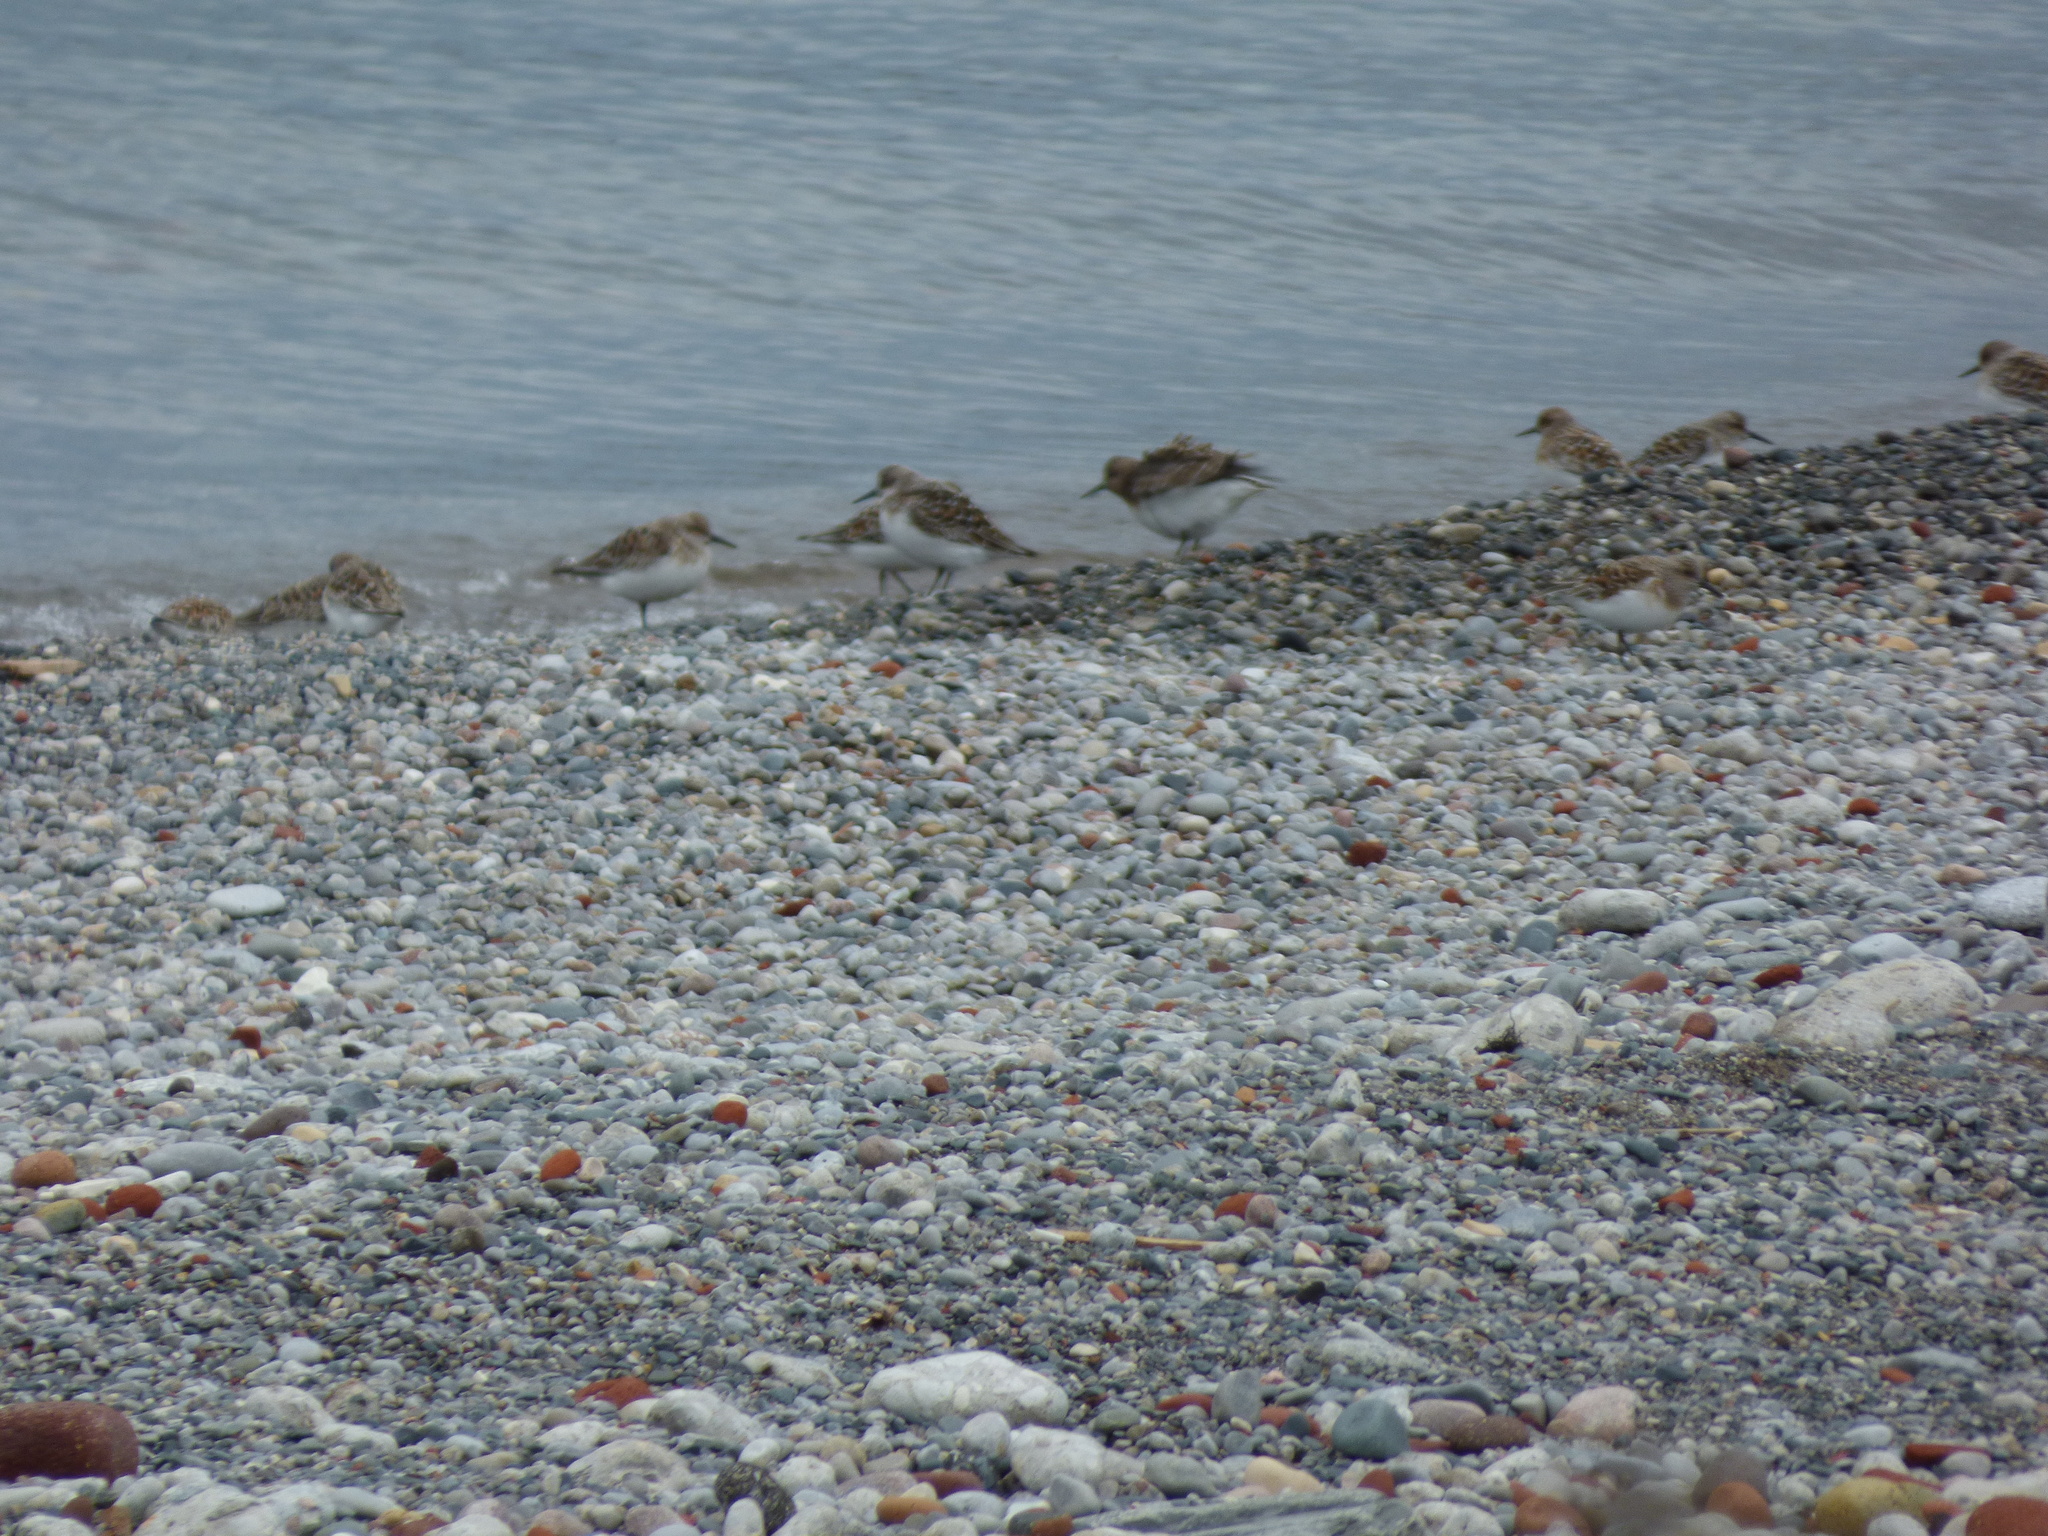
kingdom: Animalia
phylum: Chordata
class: Aves
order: Charadriiformes
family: Scolopacidae
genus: Calidris
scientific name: Calidris alba
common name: Sanderling
